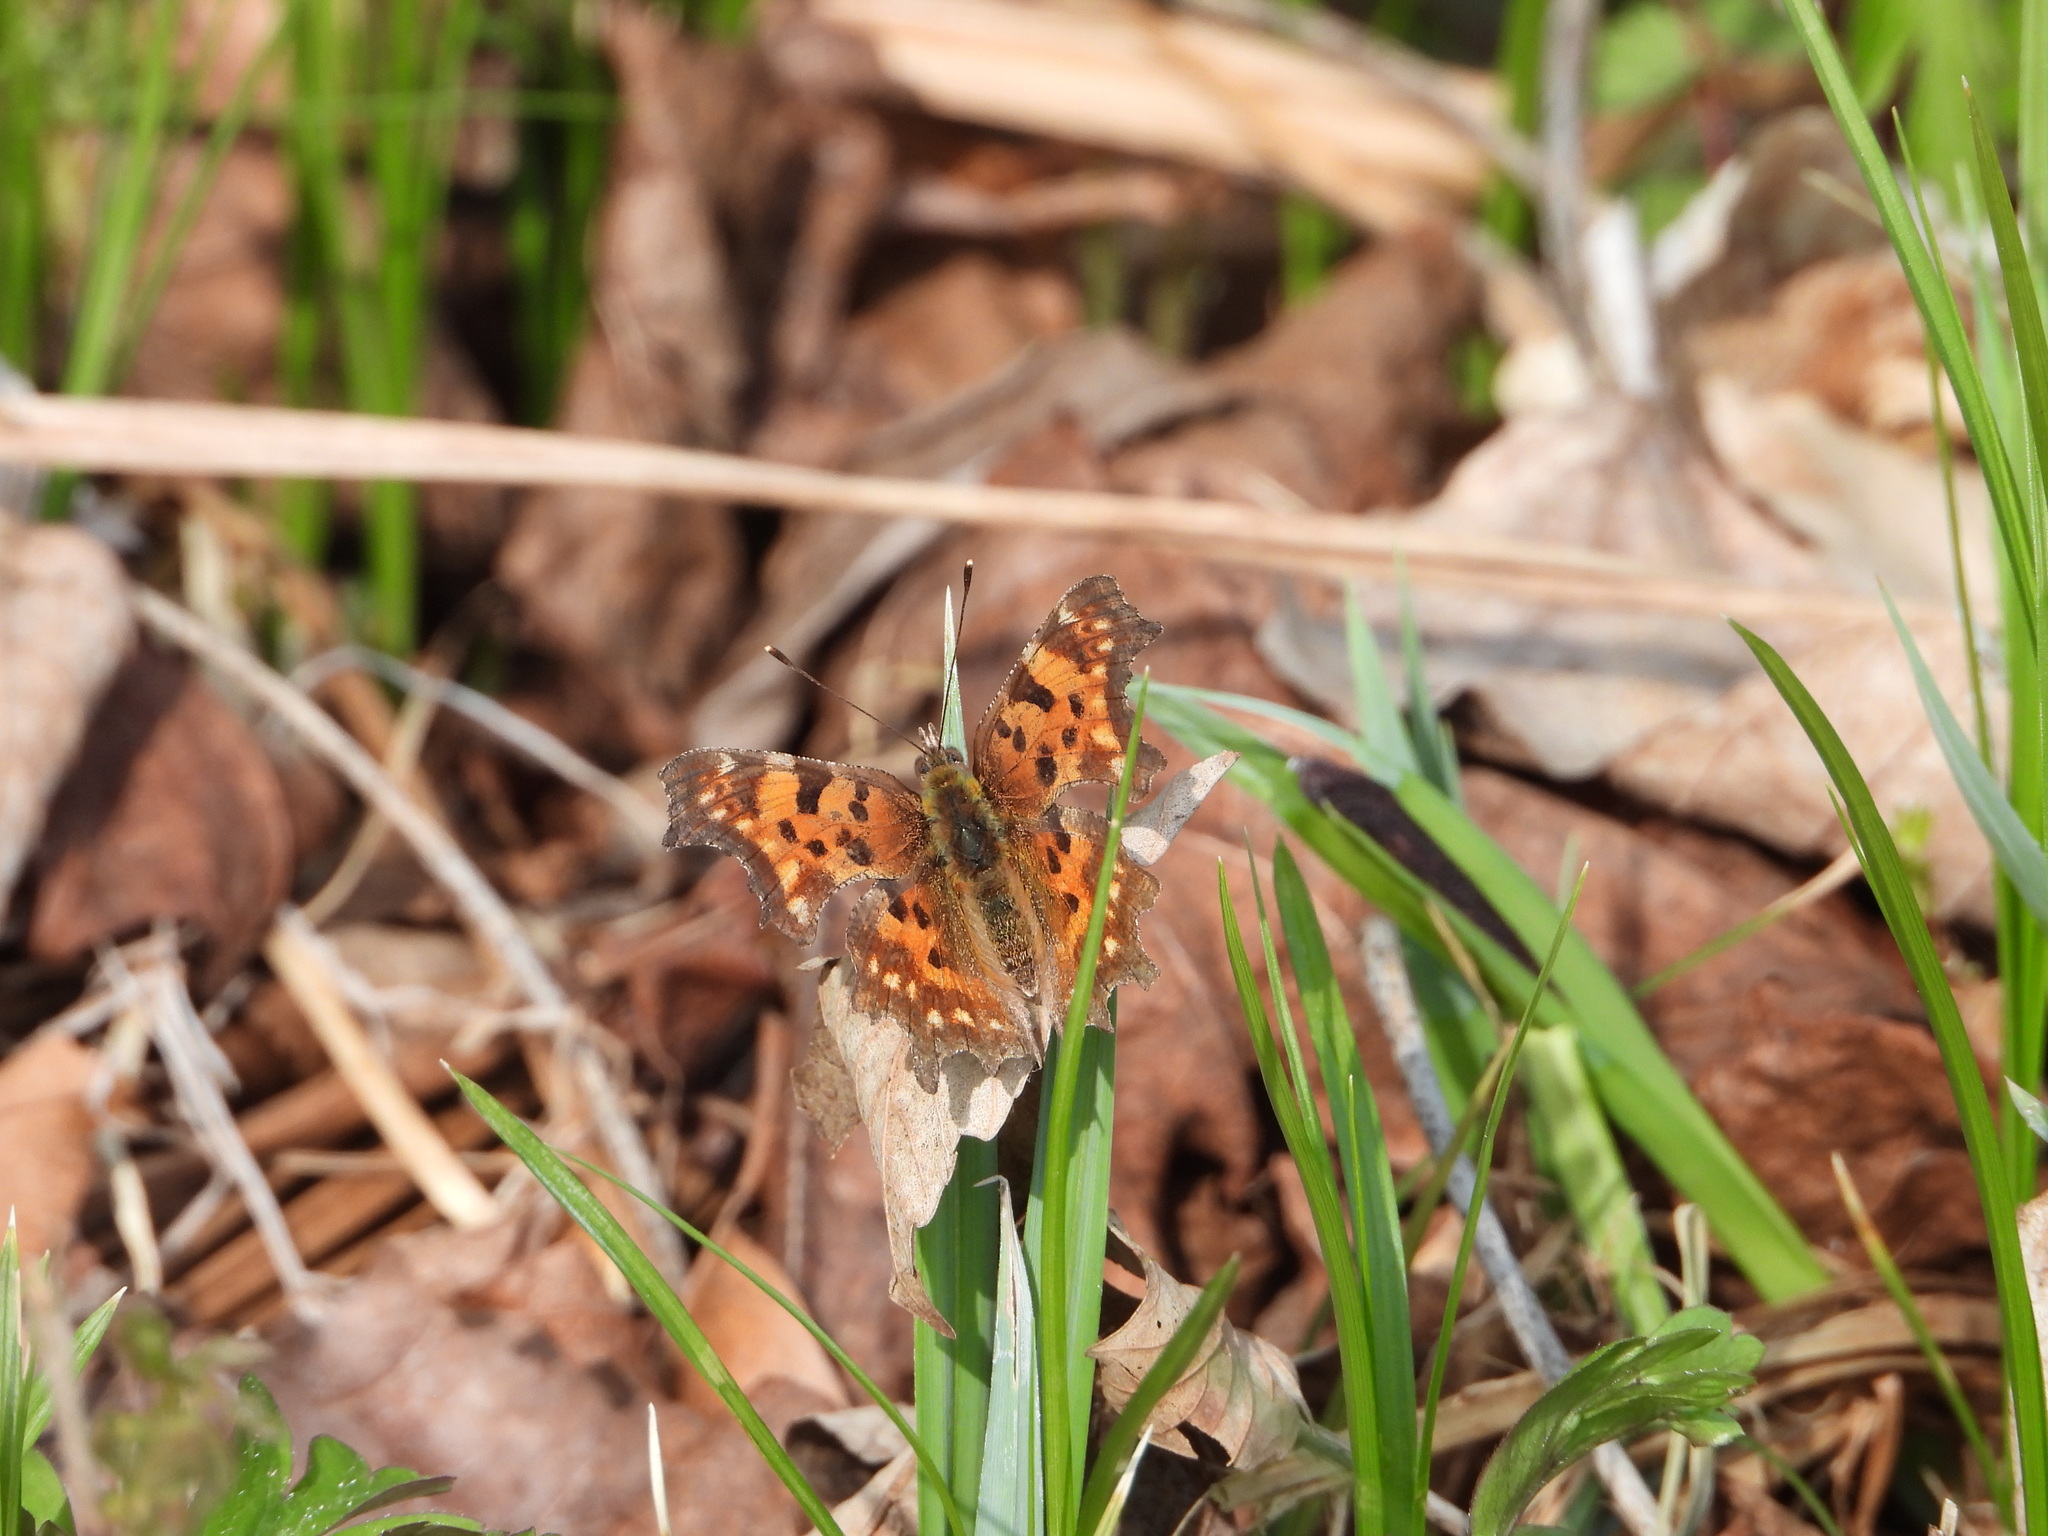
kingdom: Animalia
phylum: Arthropoda
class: Insecta
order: Lepidoptera
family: Nymphalidae
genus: Polygonia
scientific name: Polygonia c-album
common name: Comma
